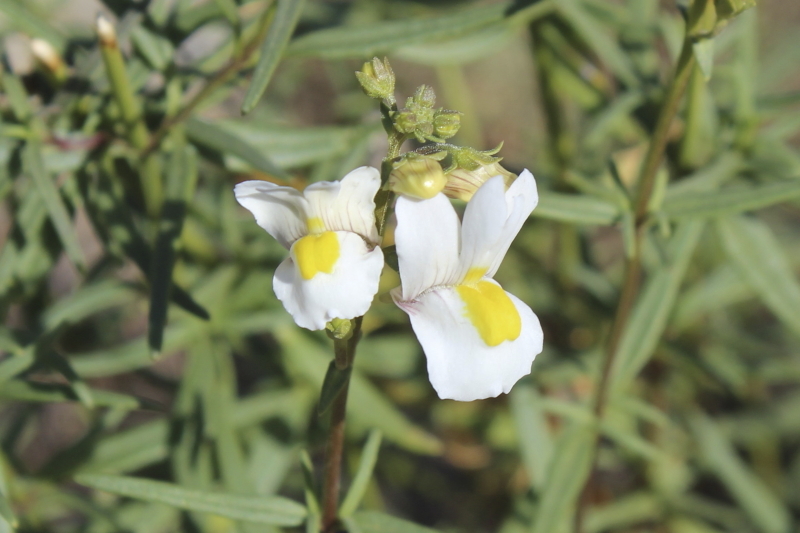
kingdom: Plantae
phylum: Tracheophyta
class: Magnoliopsida
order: Lamiales
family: Scrophulariaceae
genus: Nemesia
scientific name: Nemesia fruticans
